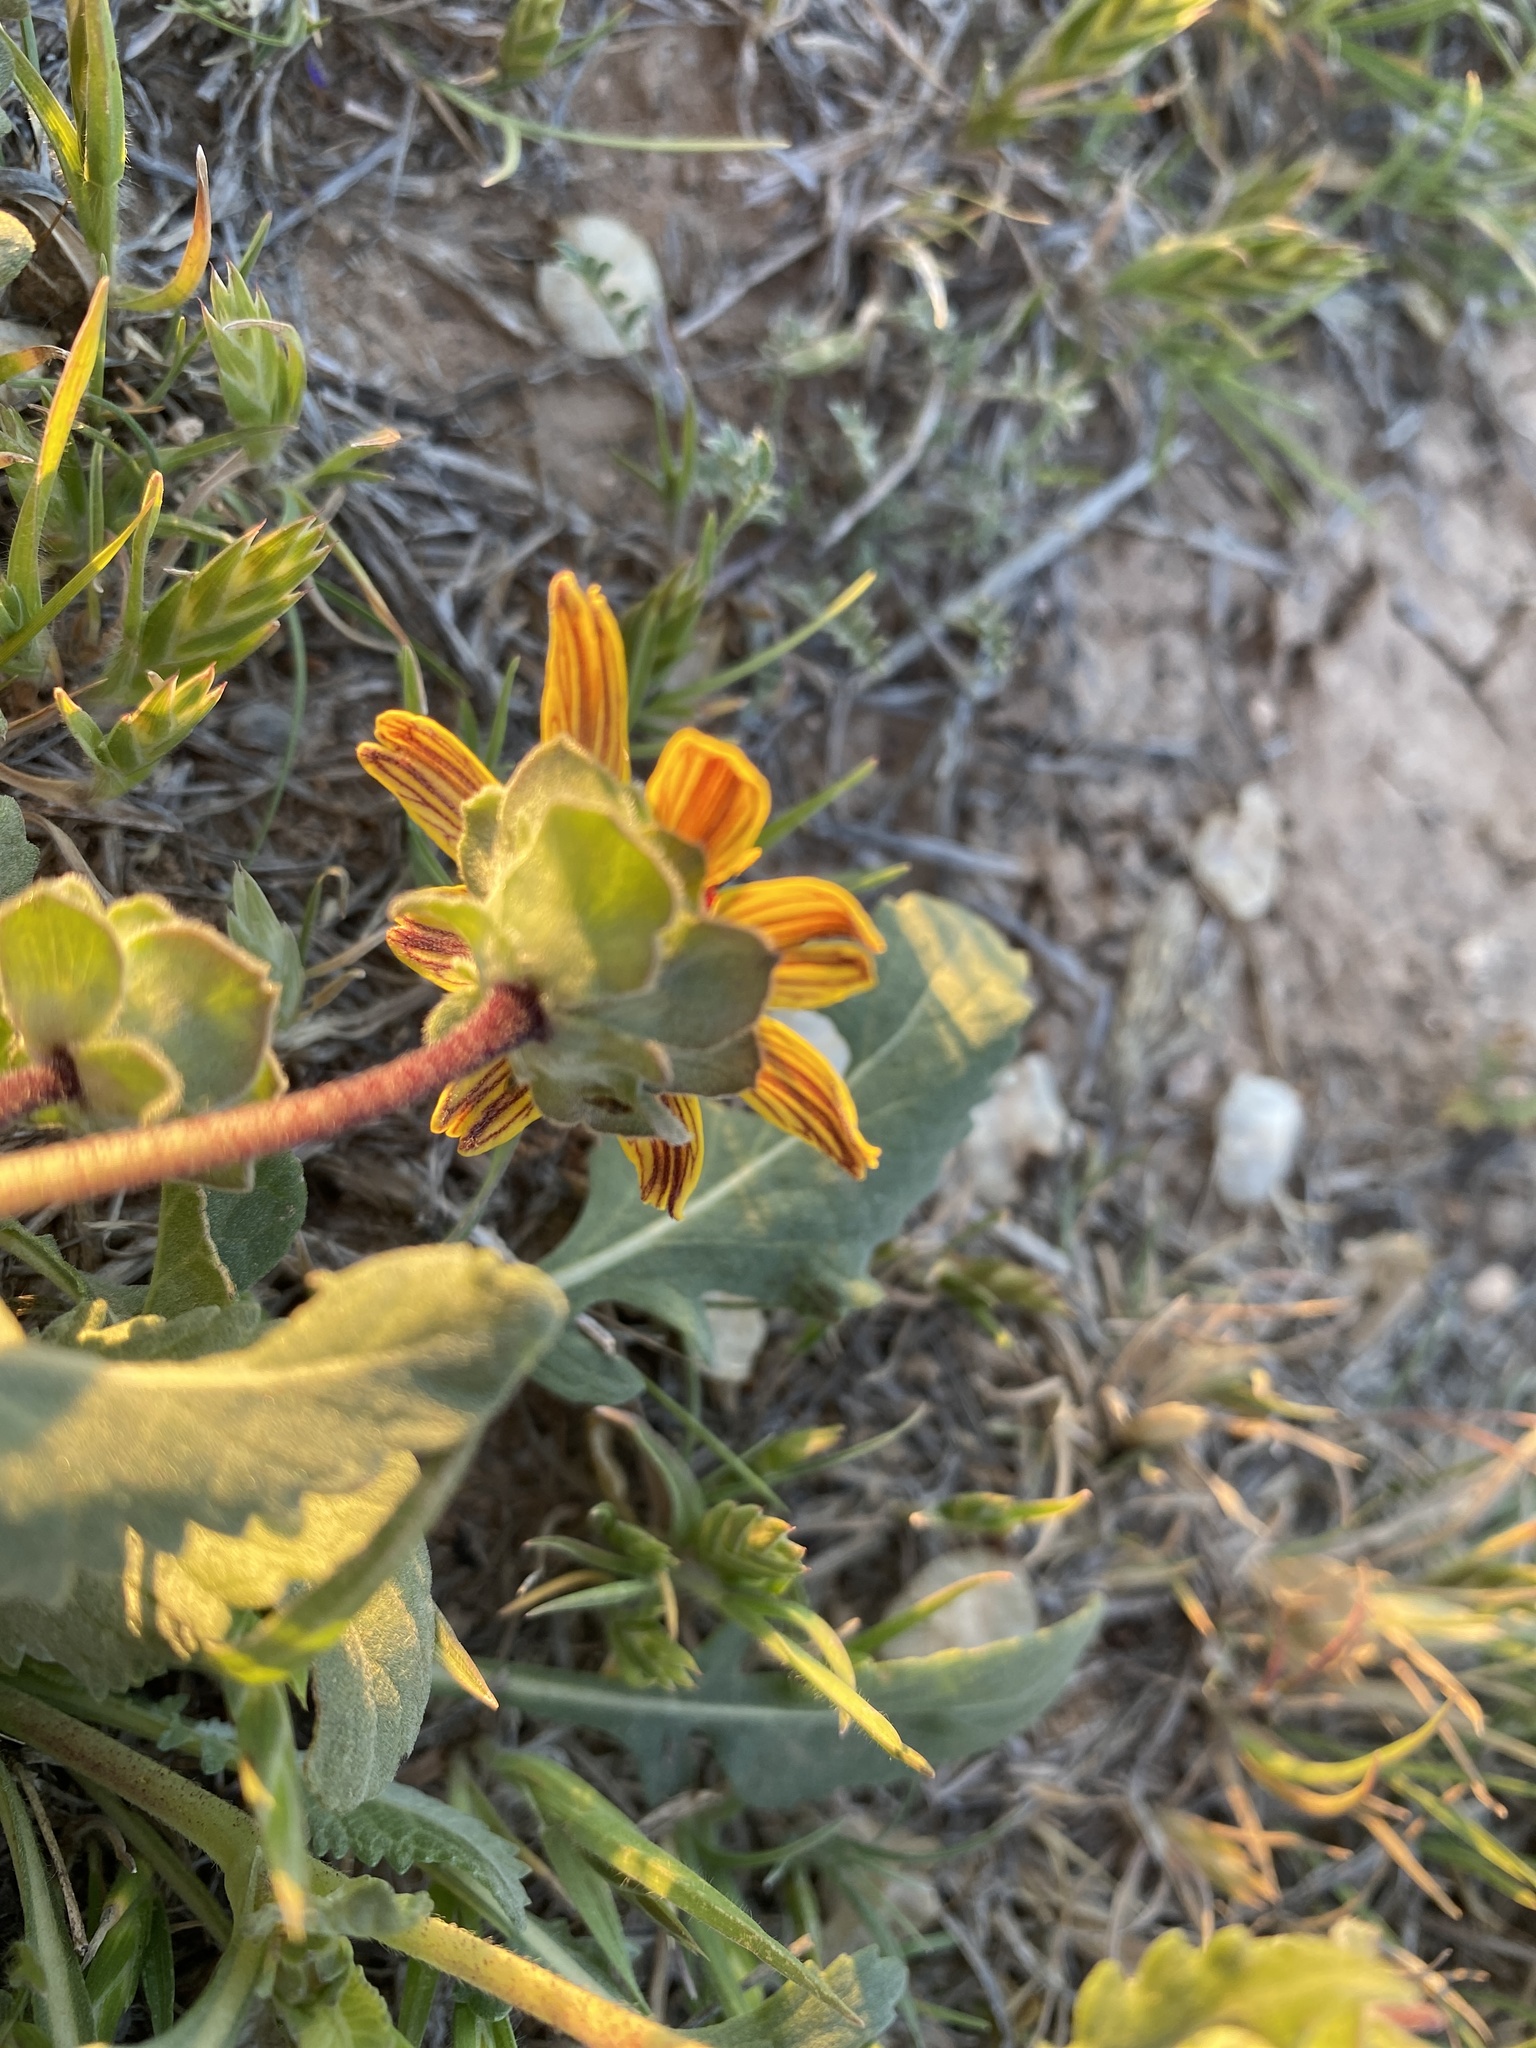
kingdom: Plantae
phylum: Tracheophyta
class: Magnoliopsida
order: Asterales
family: Asteraceae
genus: Berlandiera
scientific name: Berlandiera lyrata
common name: Chocolate-flower
